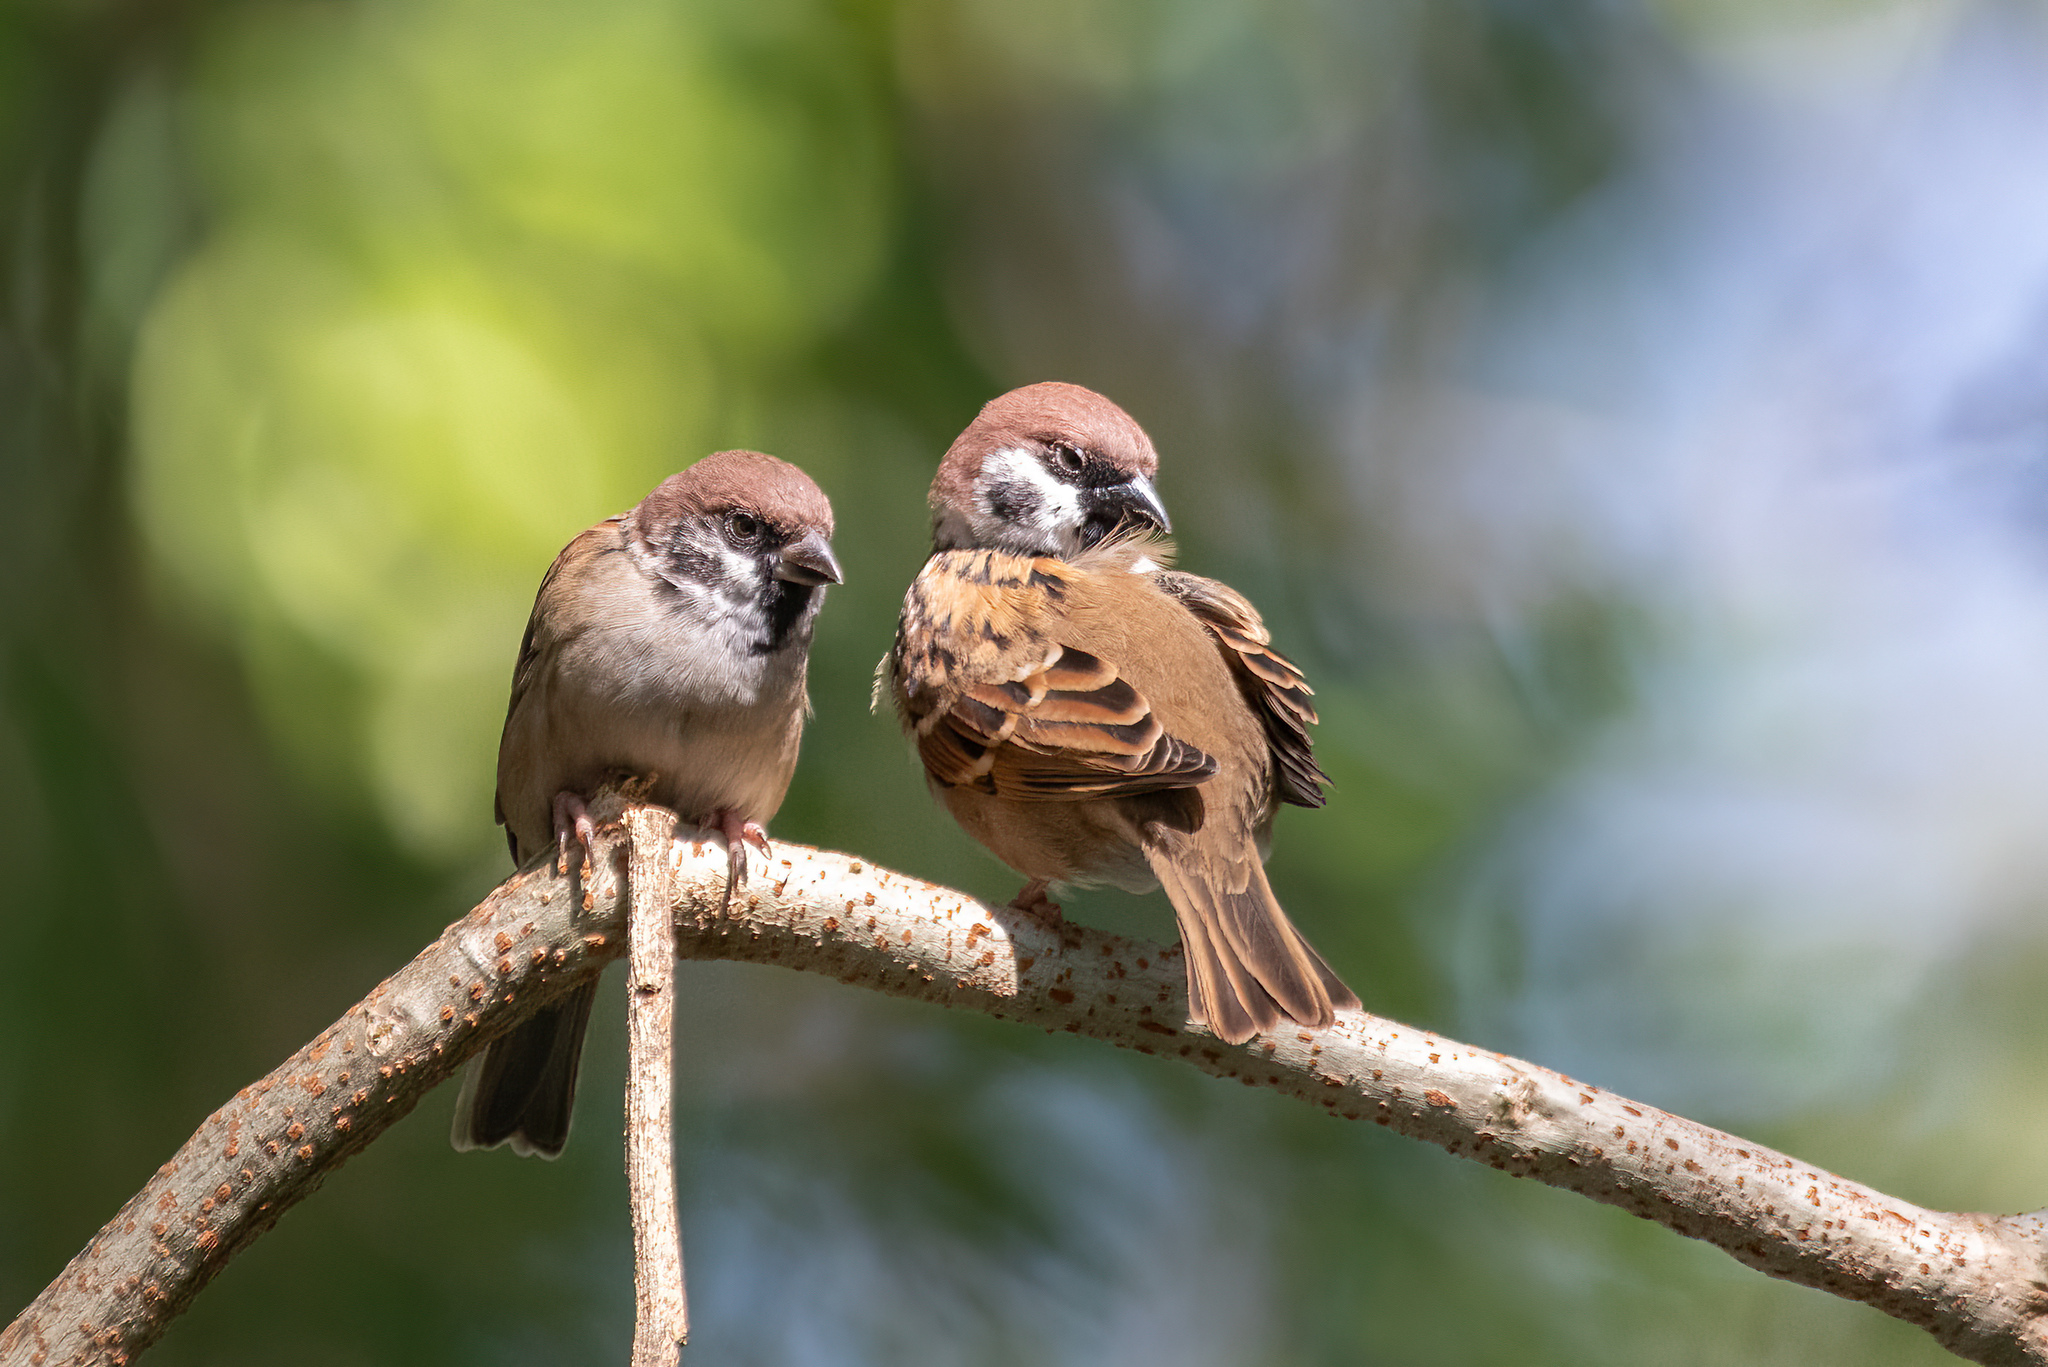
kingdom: Animalia
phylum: Chordata
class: Aves
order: Passeriformes
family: Passeridae
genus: Passer
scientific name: Passer montanus
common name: Eurasian tree sparrow
